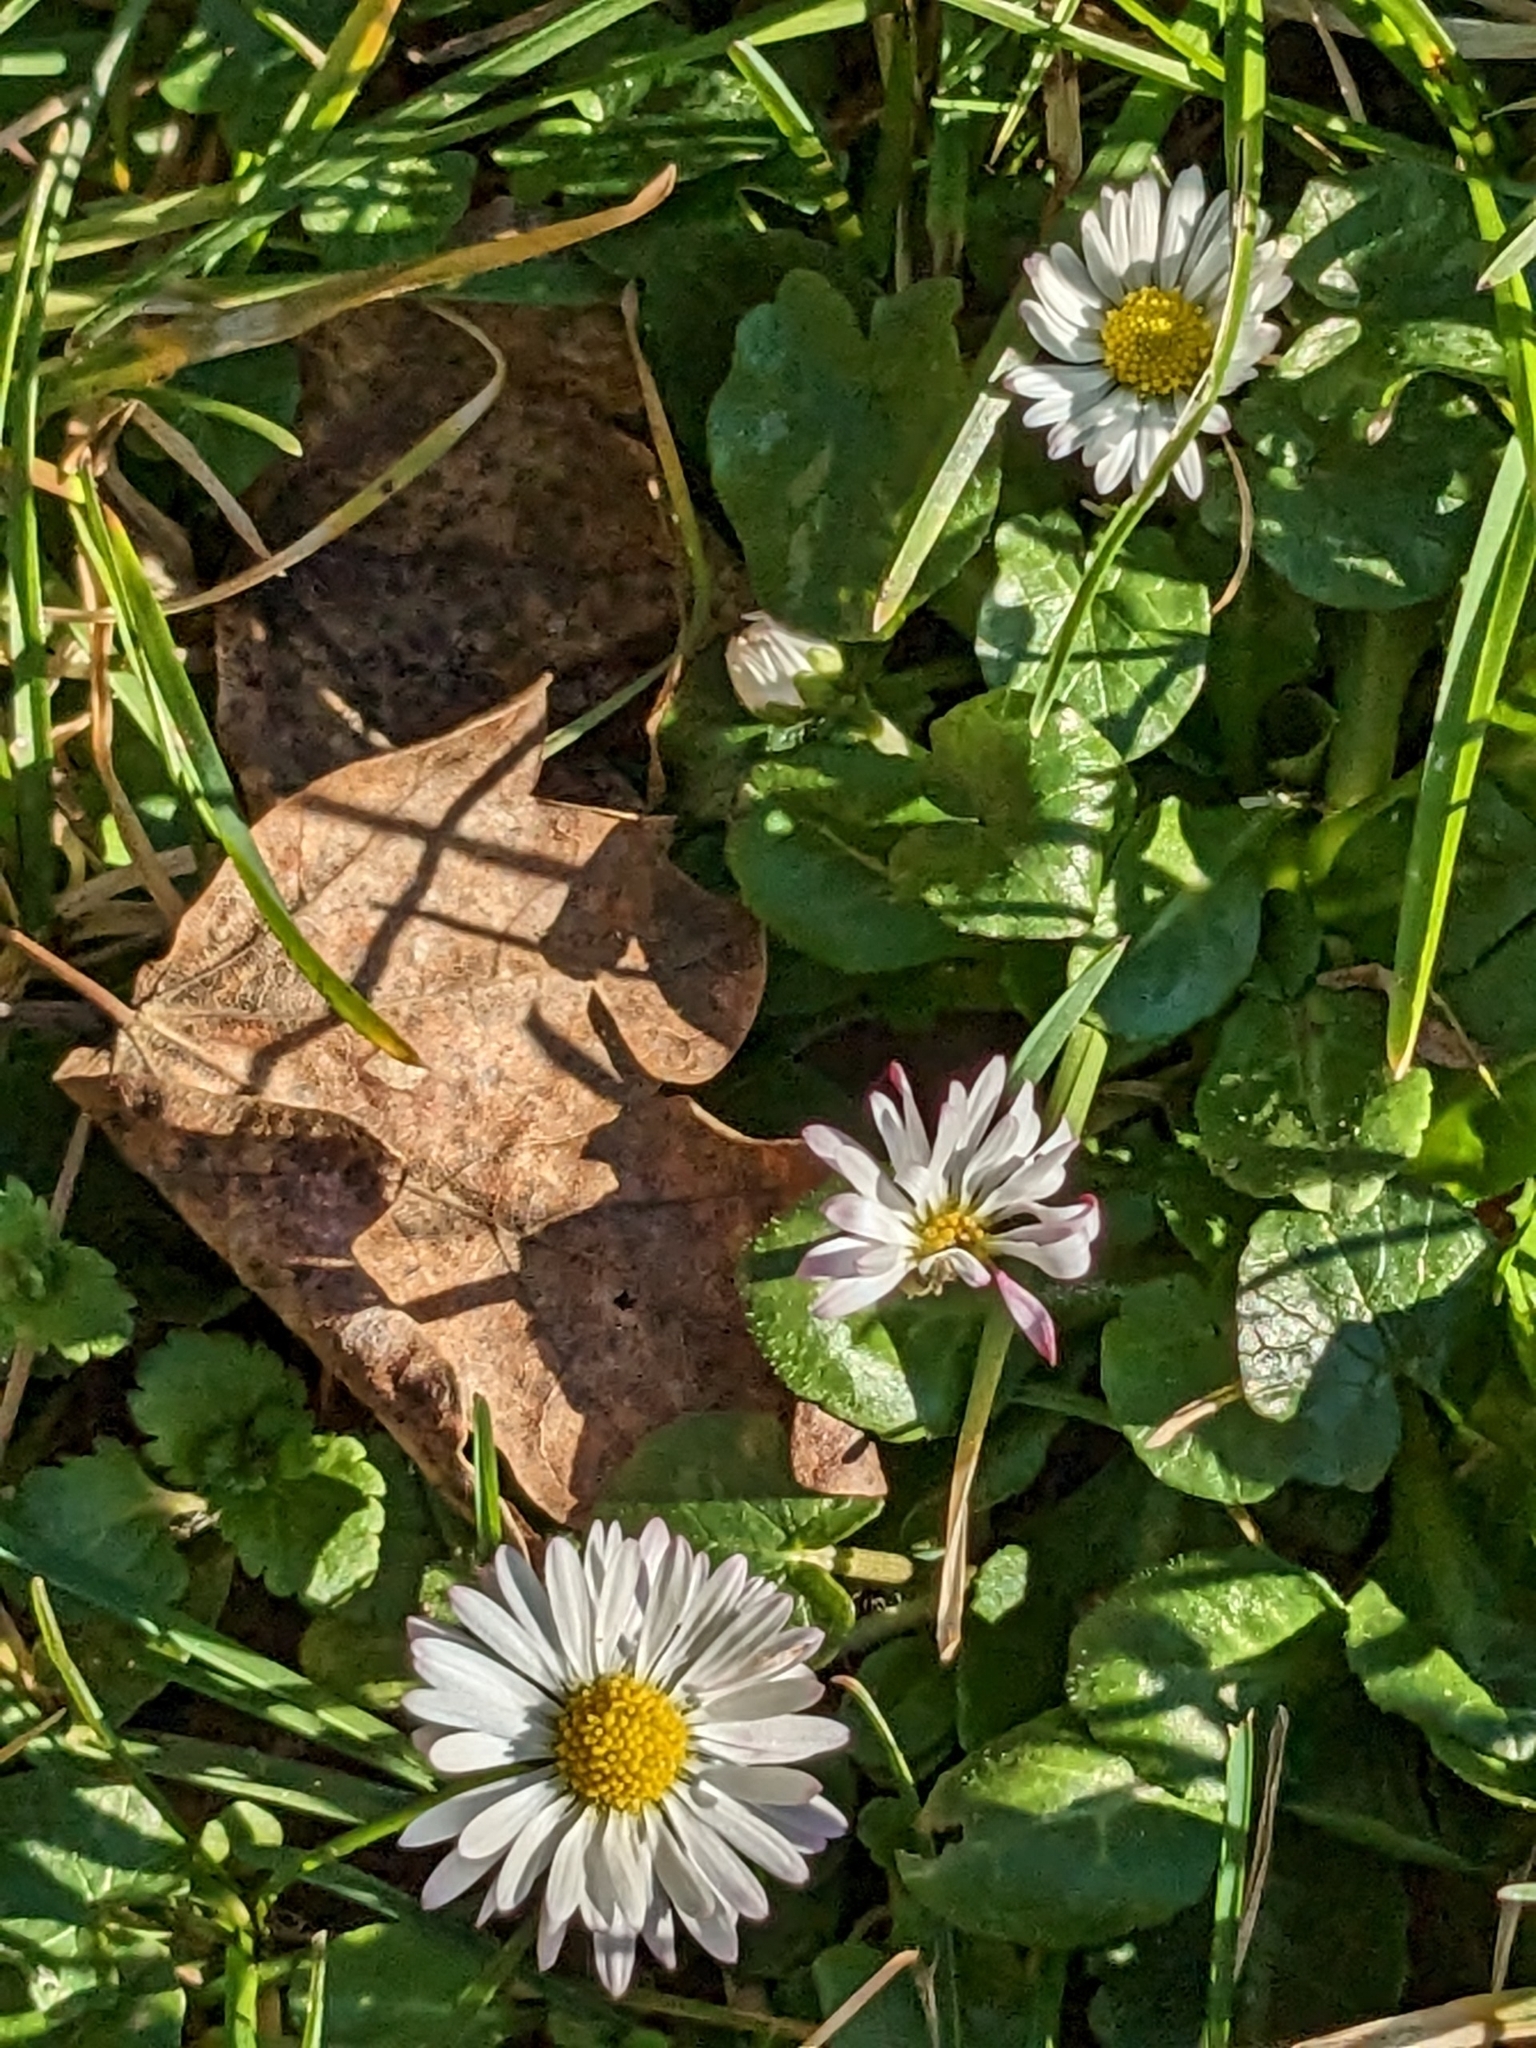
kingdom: Plantae
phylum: Tracheophyta
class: Magnoliopsida
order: Asterales
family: Asteraceae
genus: Bellis
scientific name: Bellis perennis
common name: Lawndaisy
